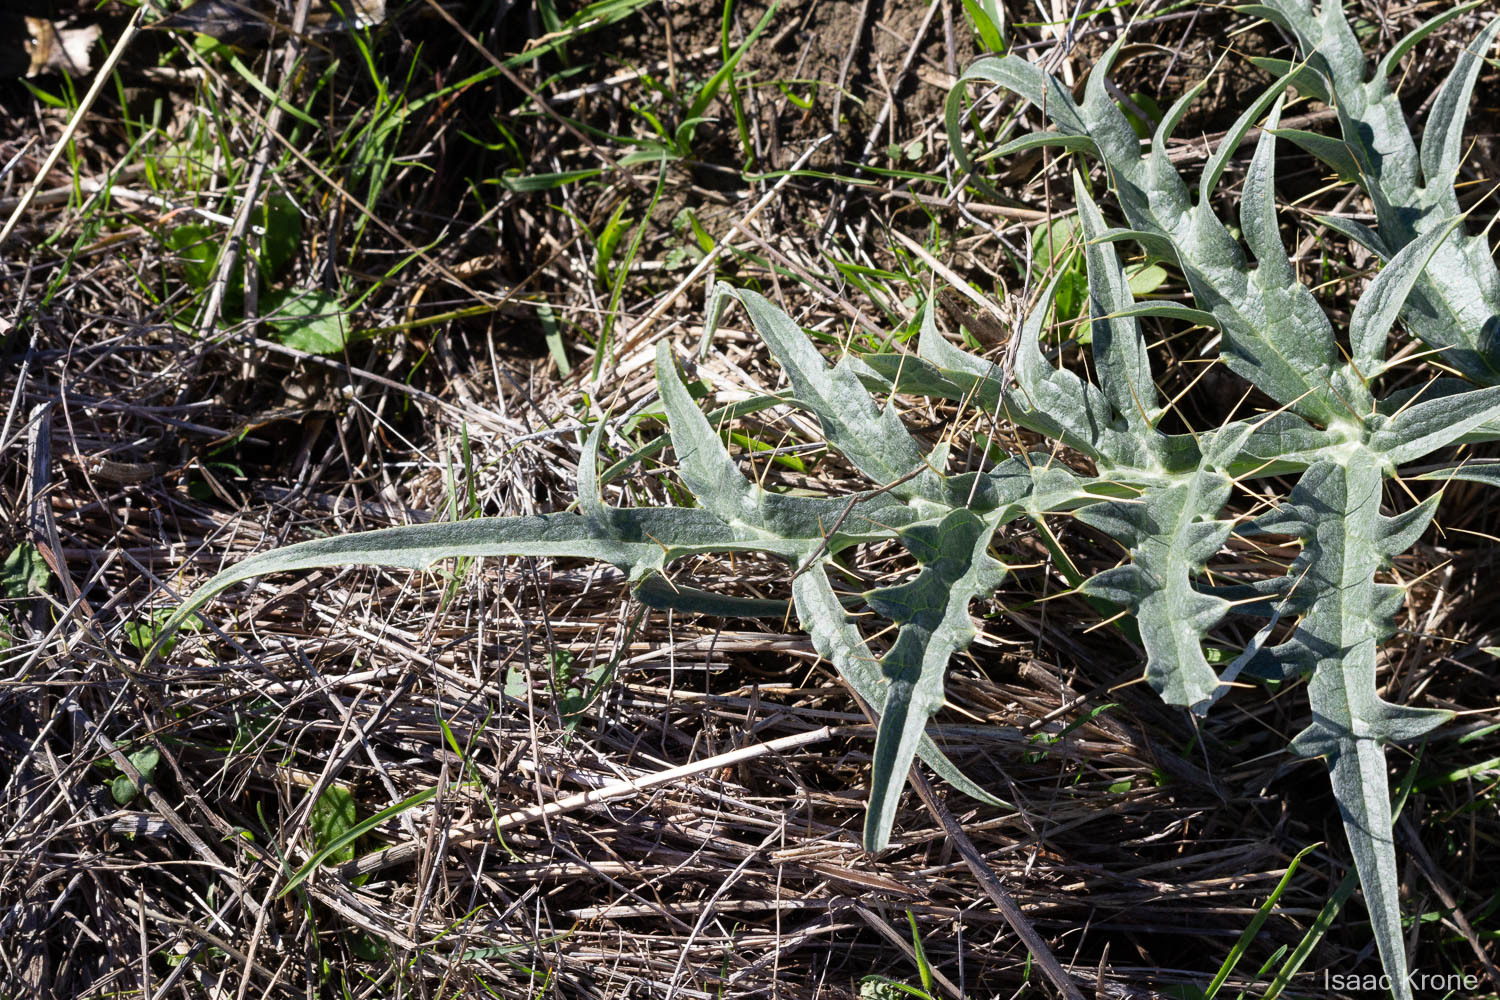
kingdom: Plantae
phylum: Tracheophyta
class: Magnoliopsida
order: Asterales
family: Asteraceae
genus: Cynara
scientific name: Cynara cardunculus
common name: Globe artichoke
